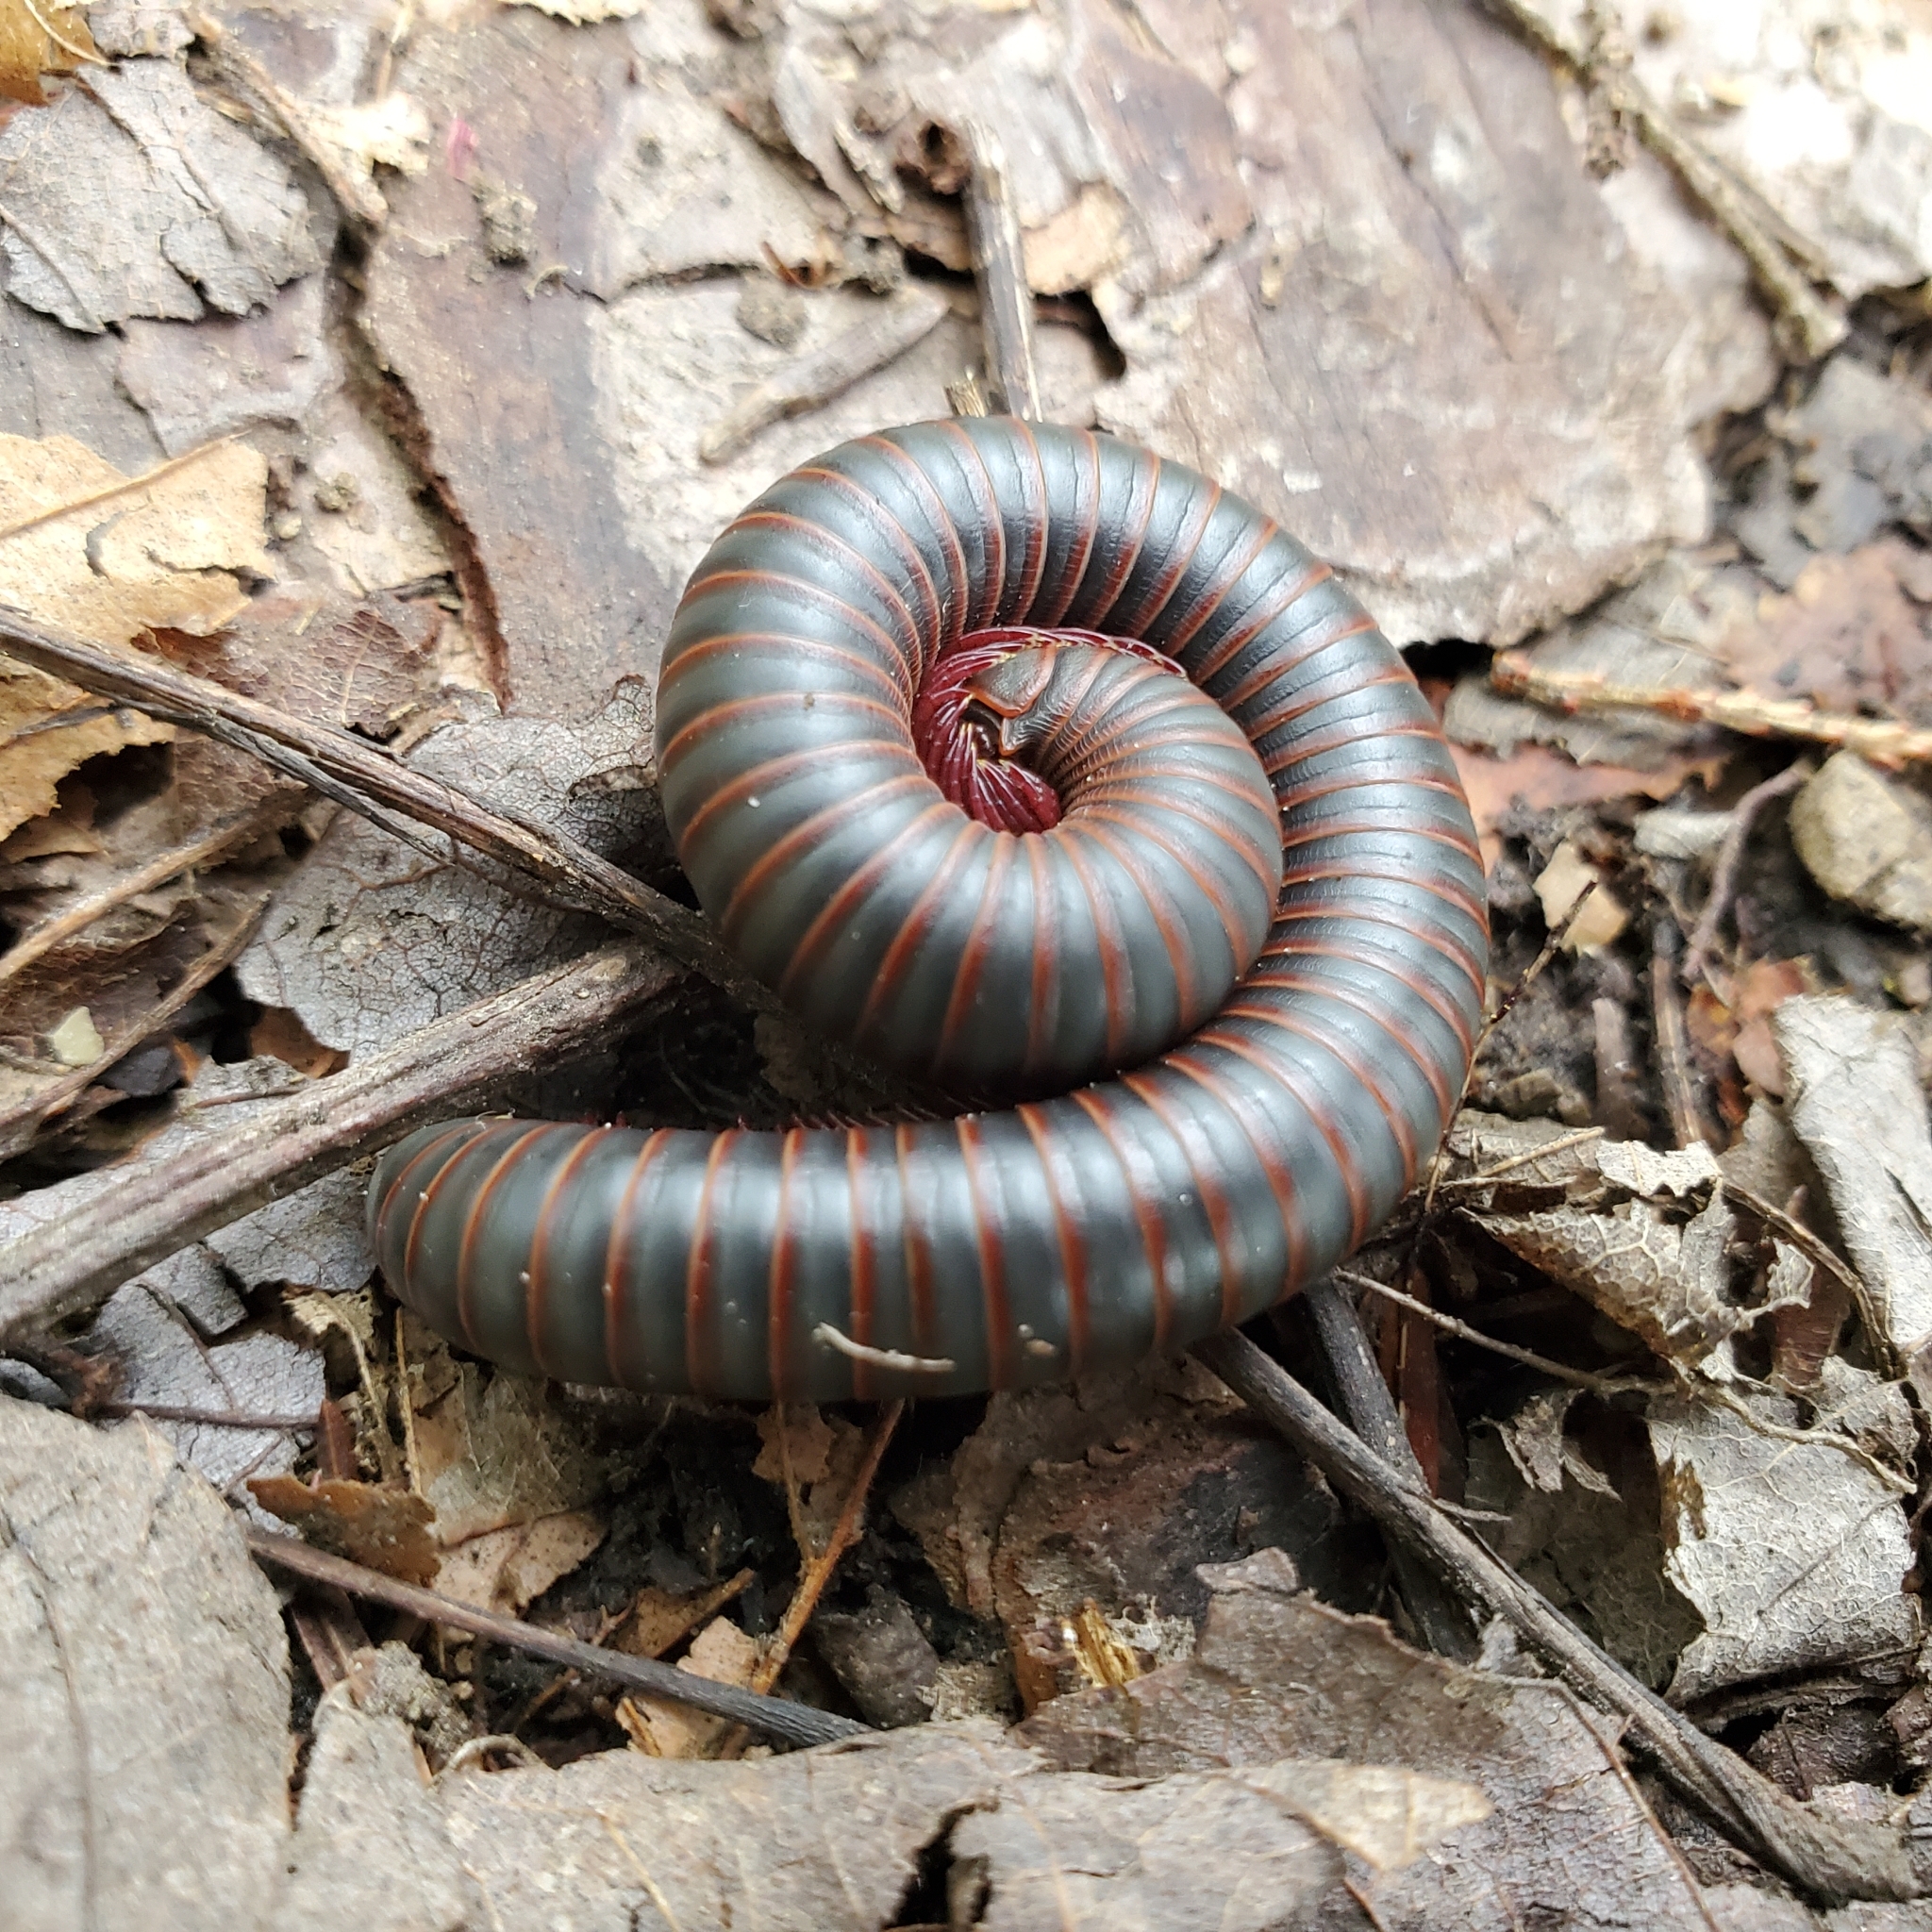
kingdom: Animalia
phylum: Arthropoda
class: Diplopoda
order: Spirobolida
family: Spirobolidae
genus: Narceus
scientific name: Narceus americanus
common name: American giant millipede
